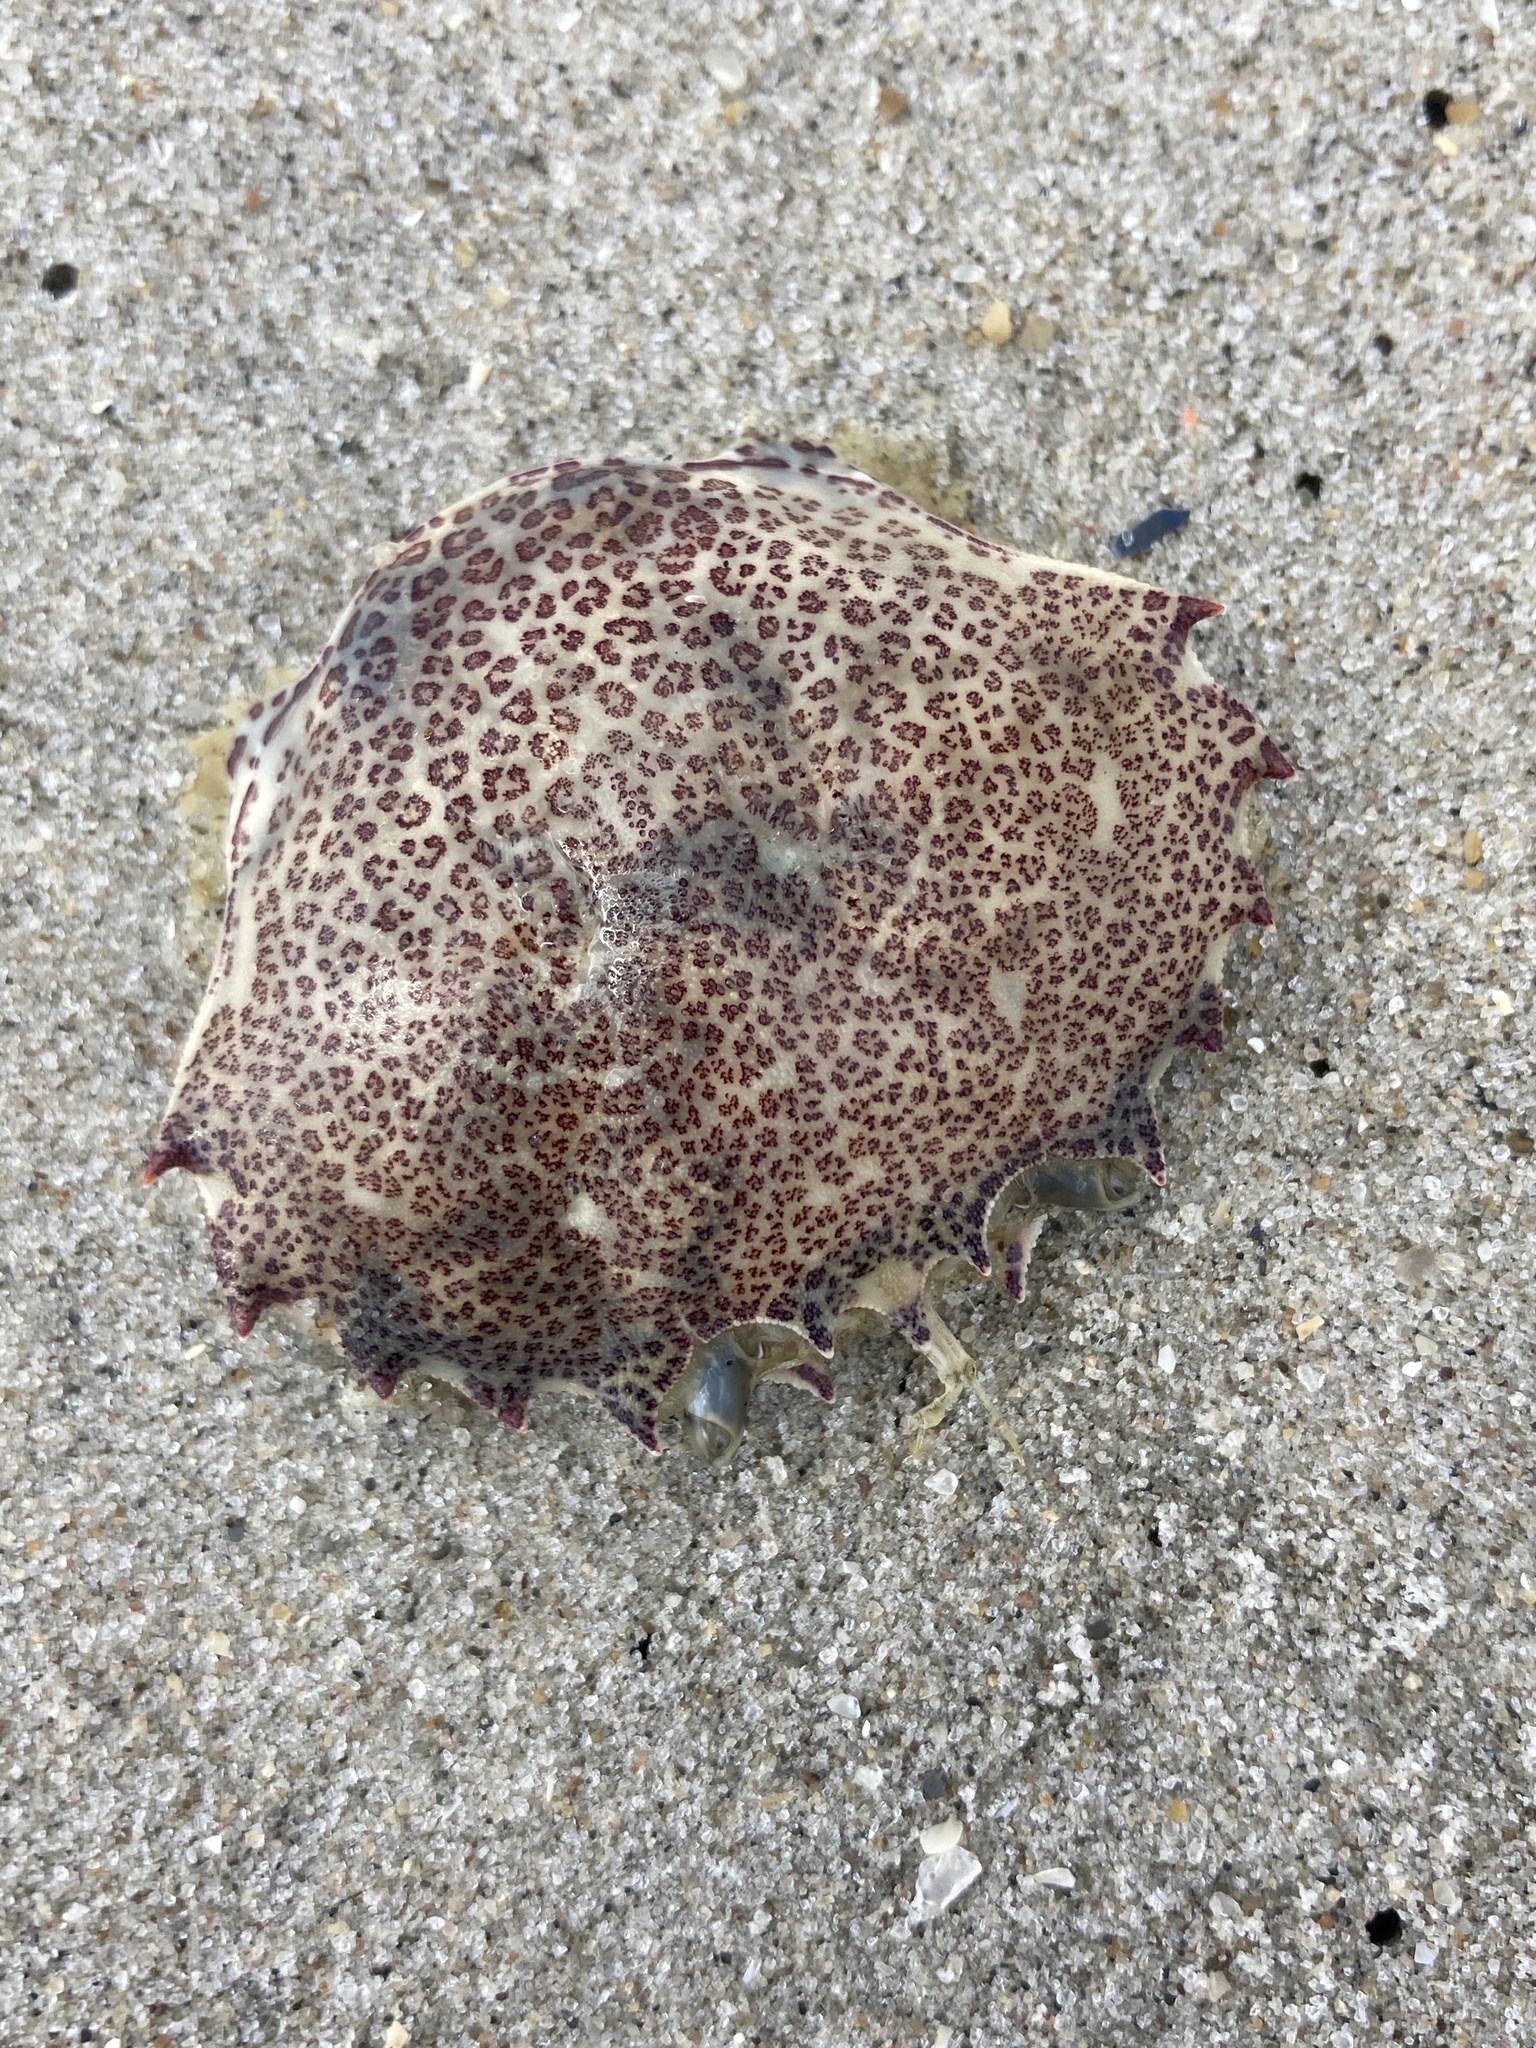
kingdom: Animalia
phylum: Arthropoda
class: Malacostraca
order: Decapoda
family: Ovalipidae
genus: Ovalipes
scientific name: Ovalipes ocellatus
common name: Lady crab
